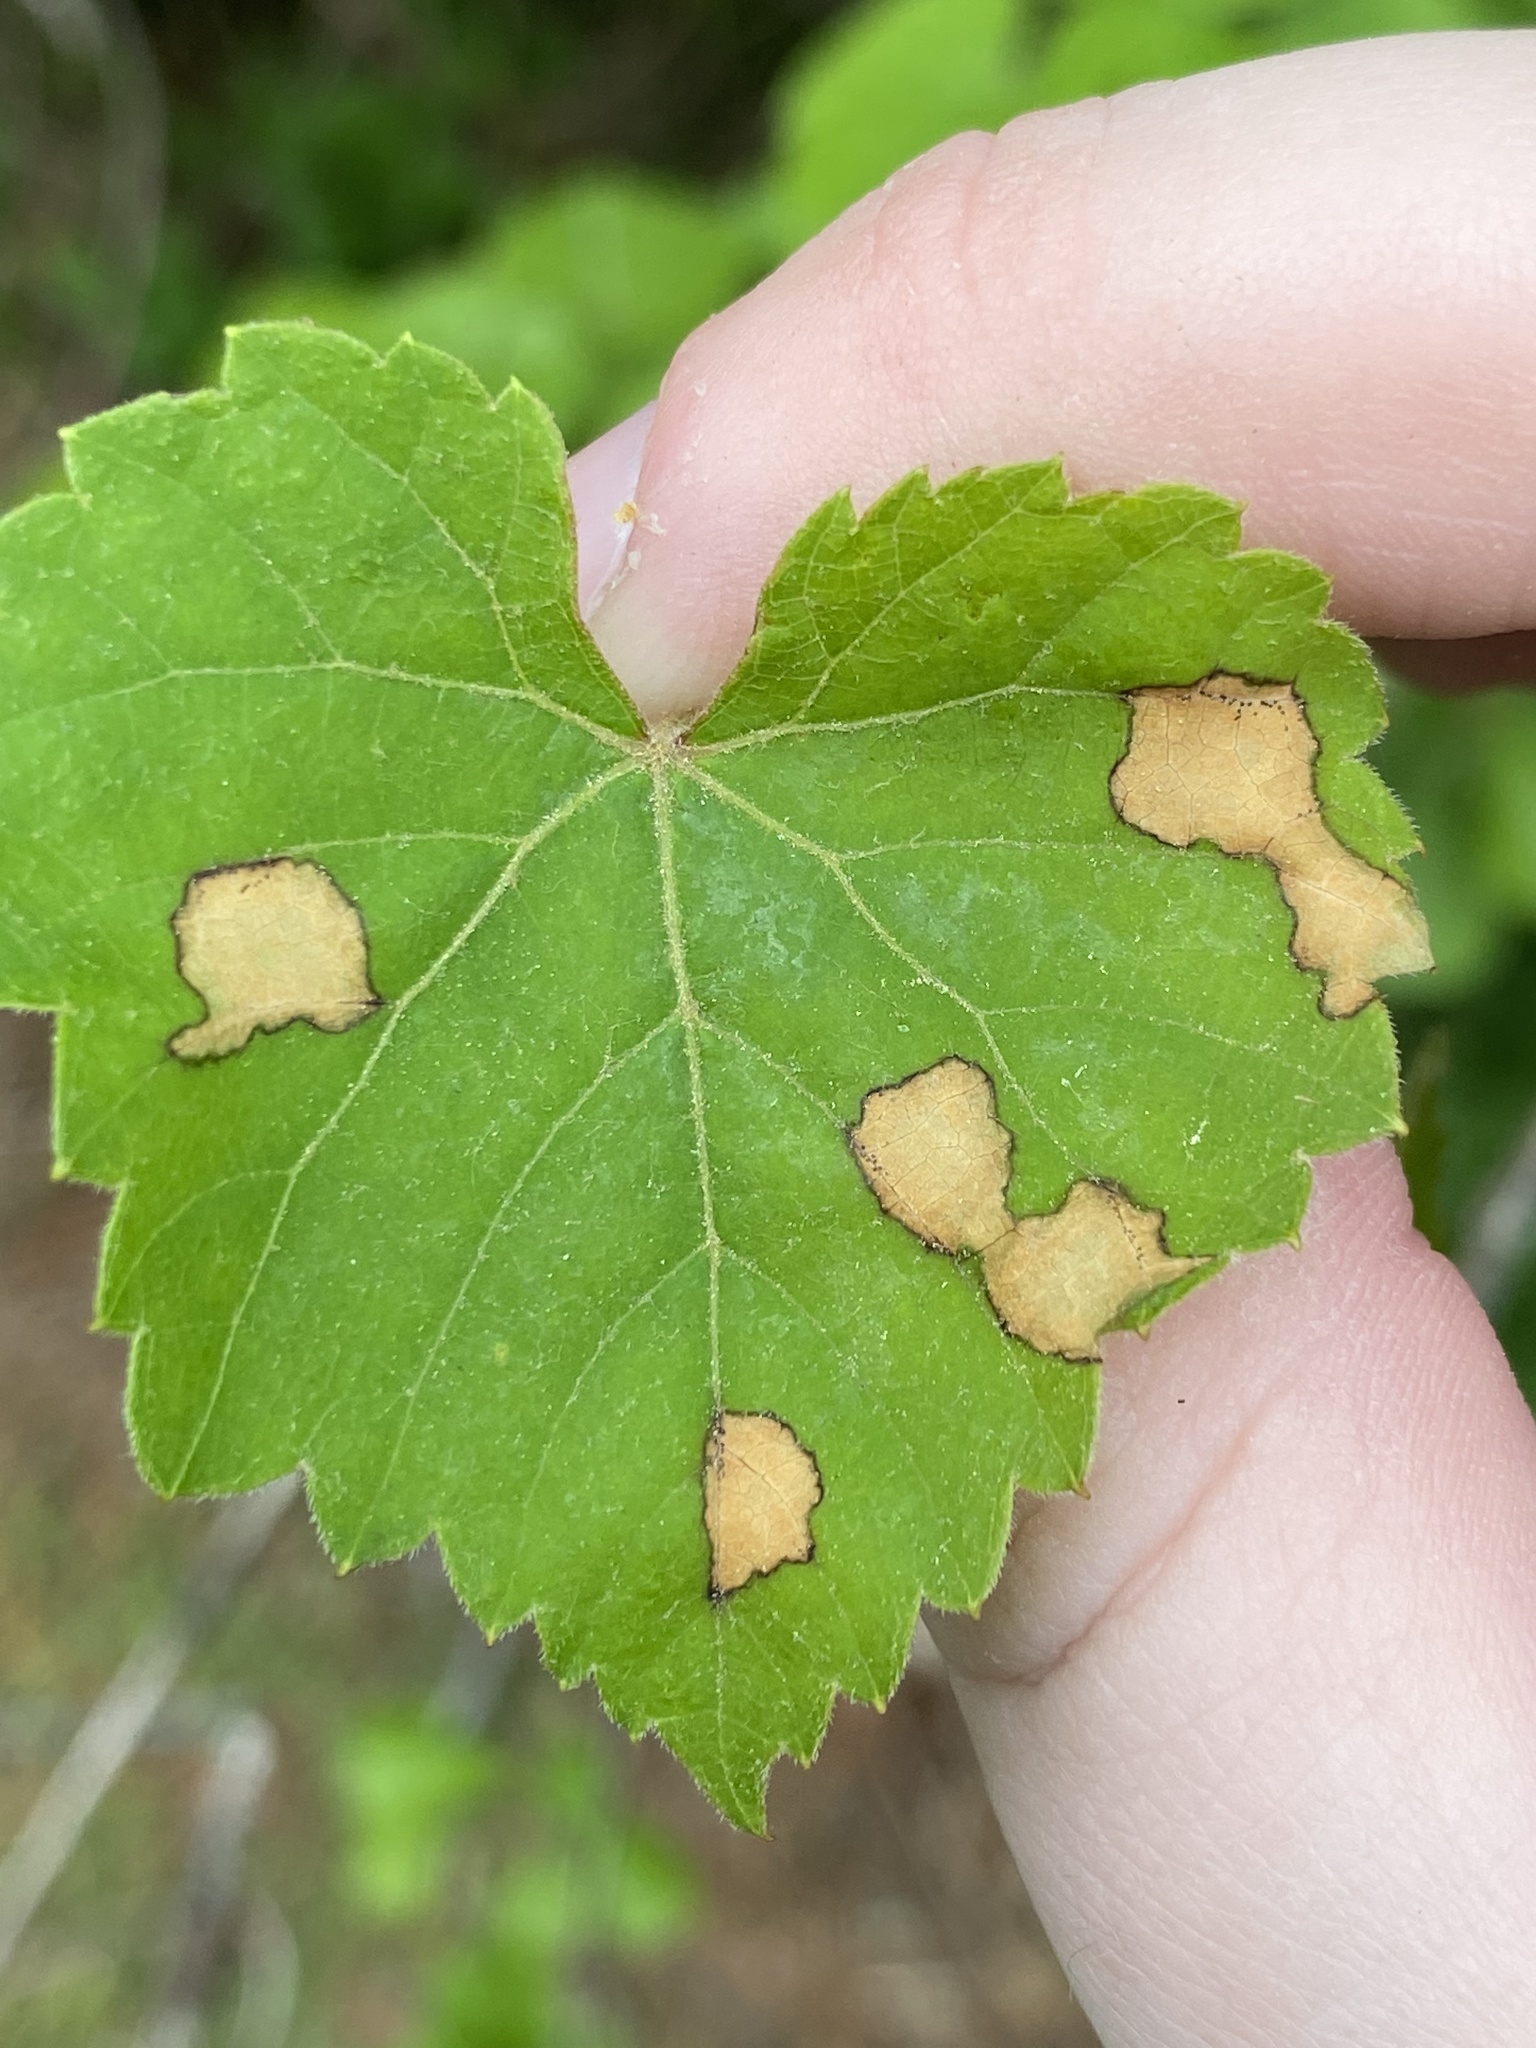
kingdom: Fungi
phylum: Ascomycota
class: Dothideomycetes
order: Botryosphaeriales
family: Phyllostictaceae
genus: Phyllosticta
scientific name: Phyllosticta ampelicida
